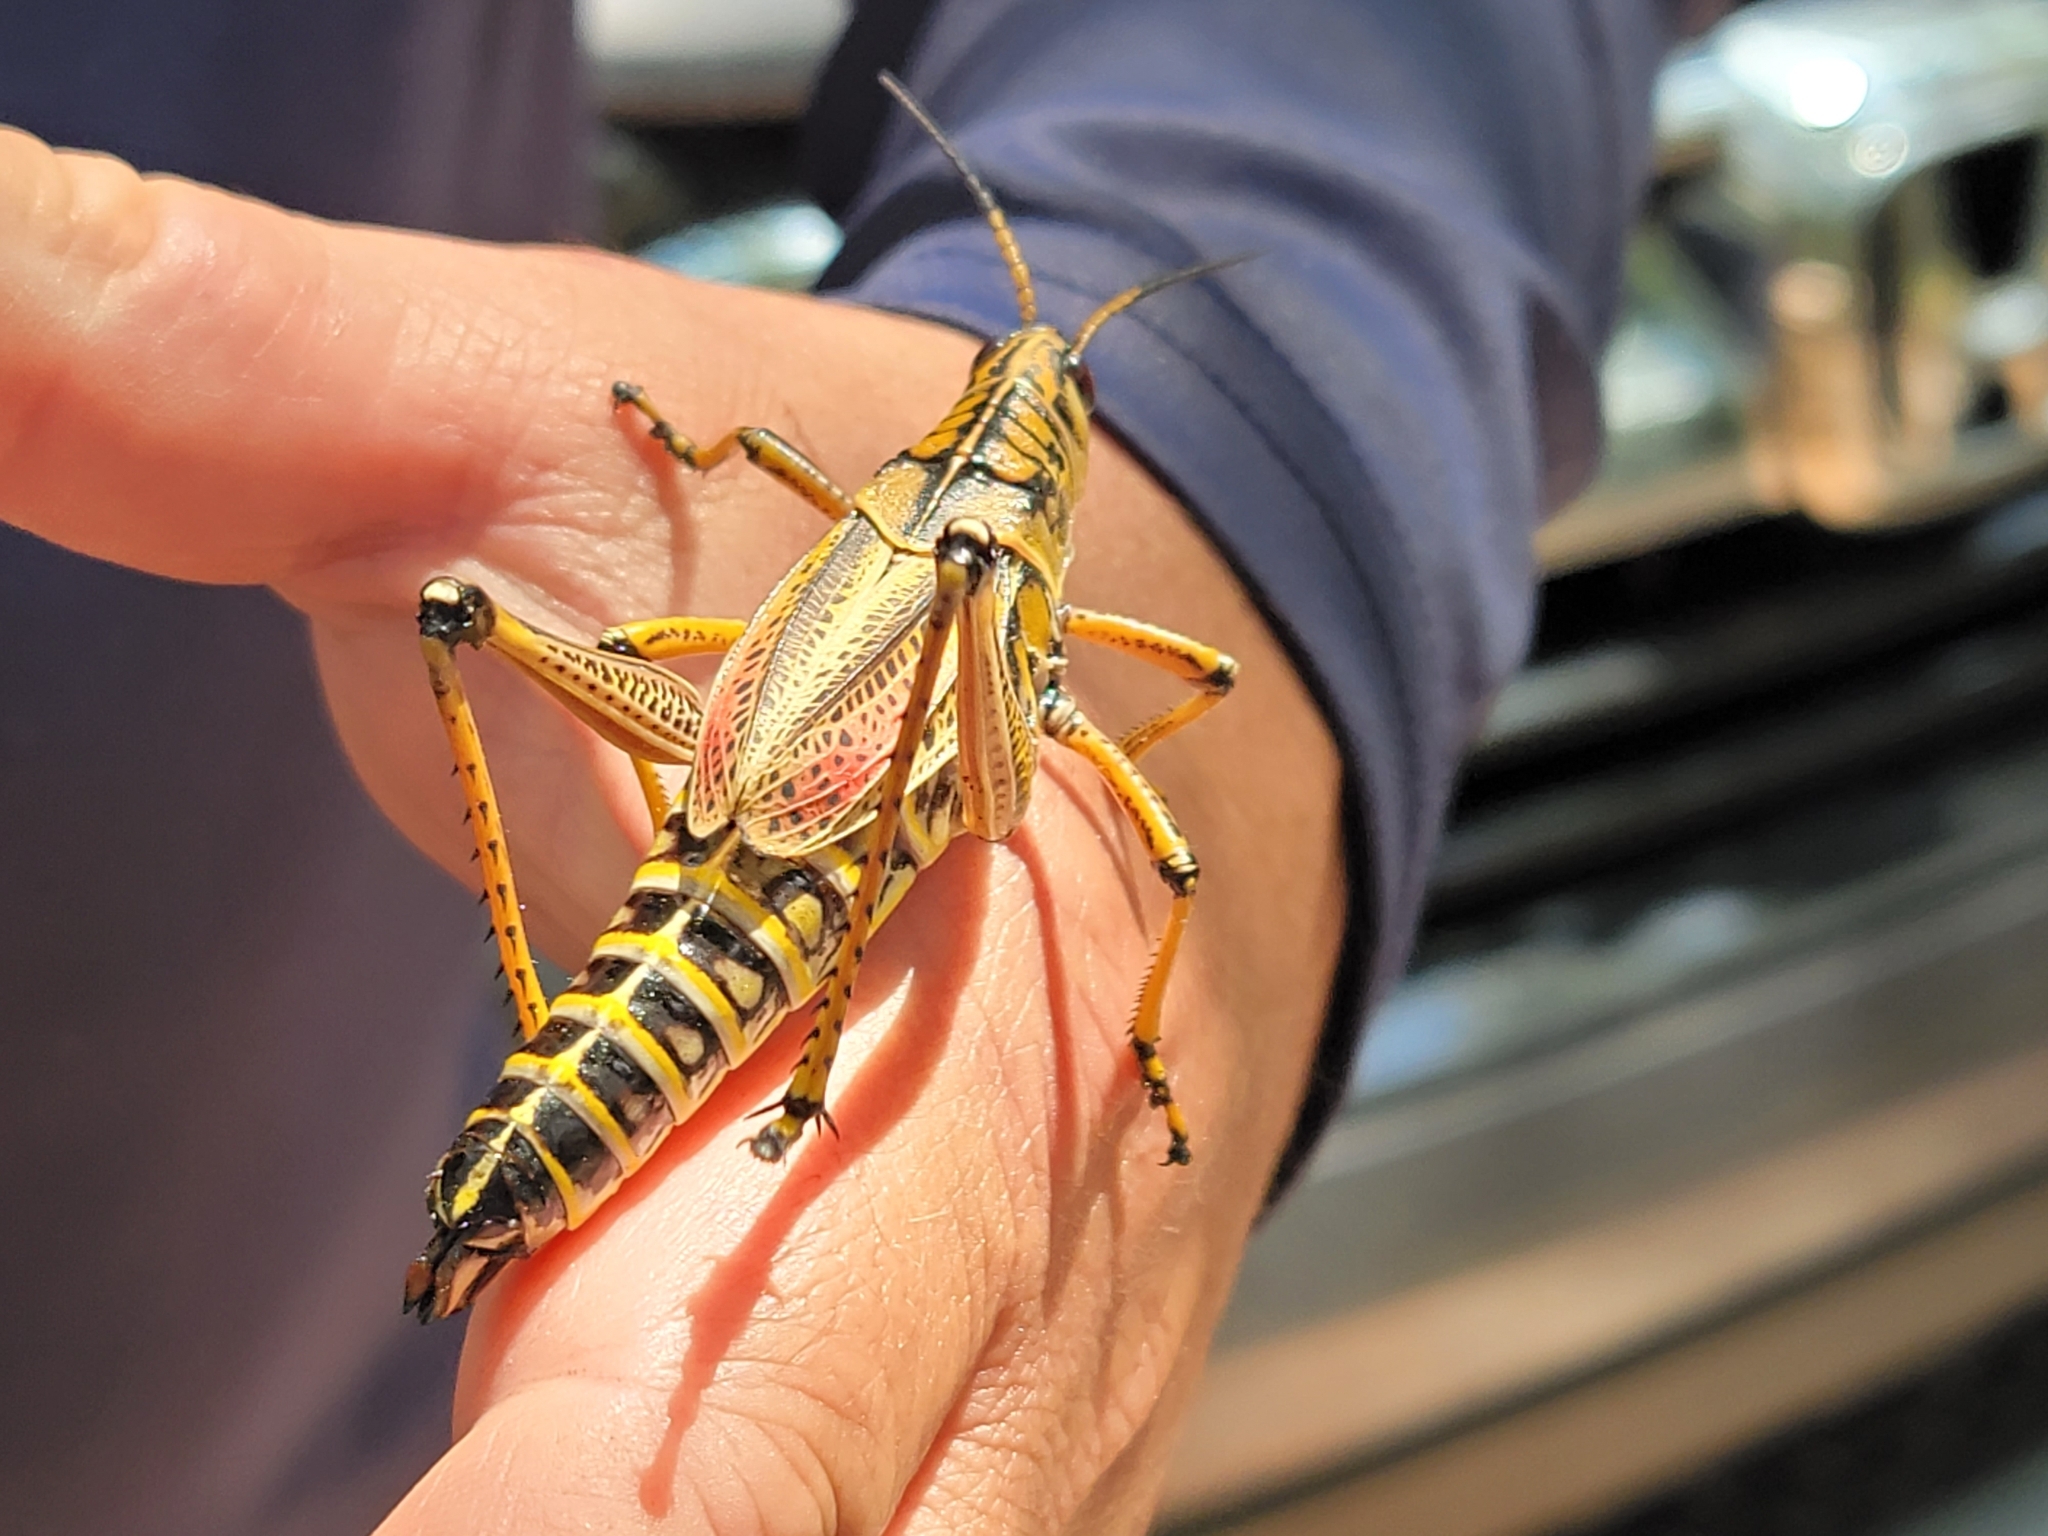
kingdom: Animalia
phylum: Arthropoda
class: Insecta
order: Orthoptera
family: Romaleidae
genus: Romalea
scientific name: Romalea microptera
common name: Eastern lubber grasshopper
